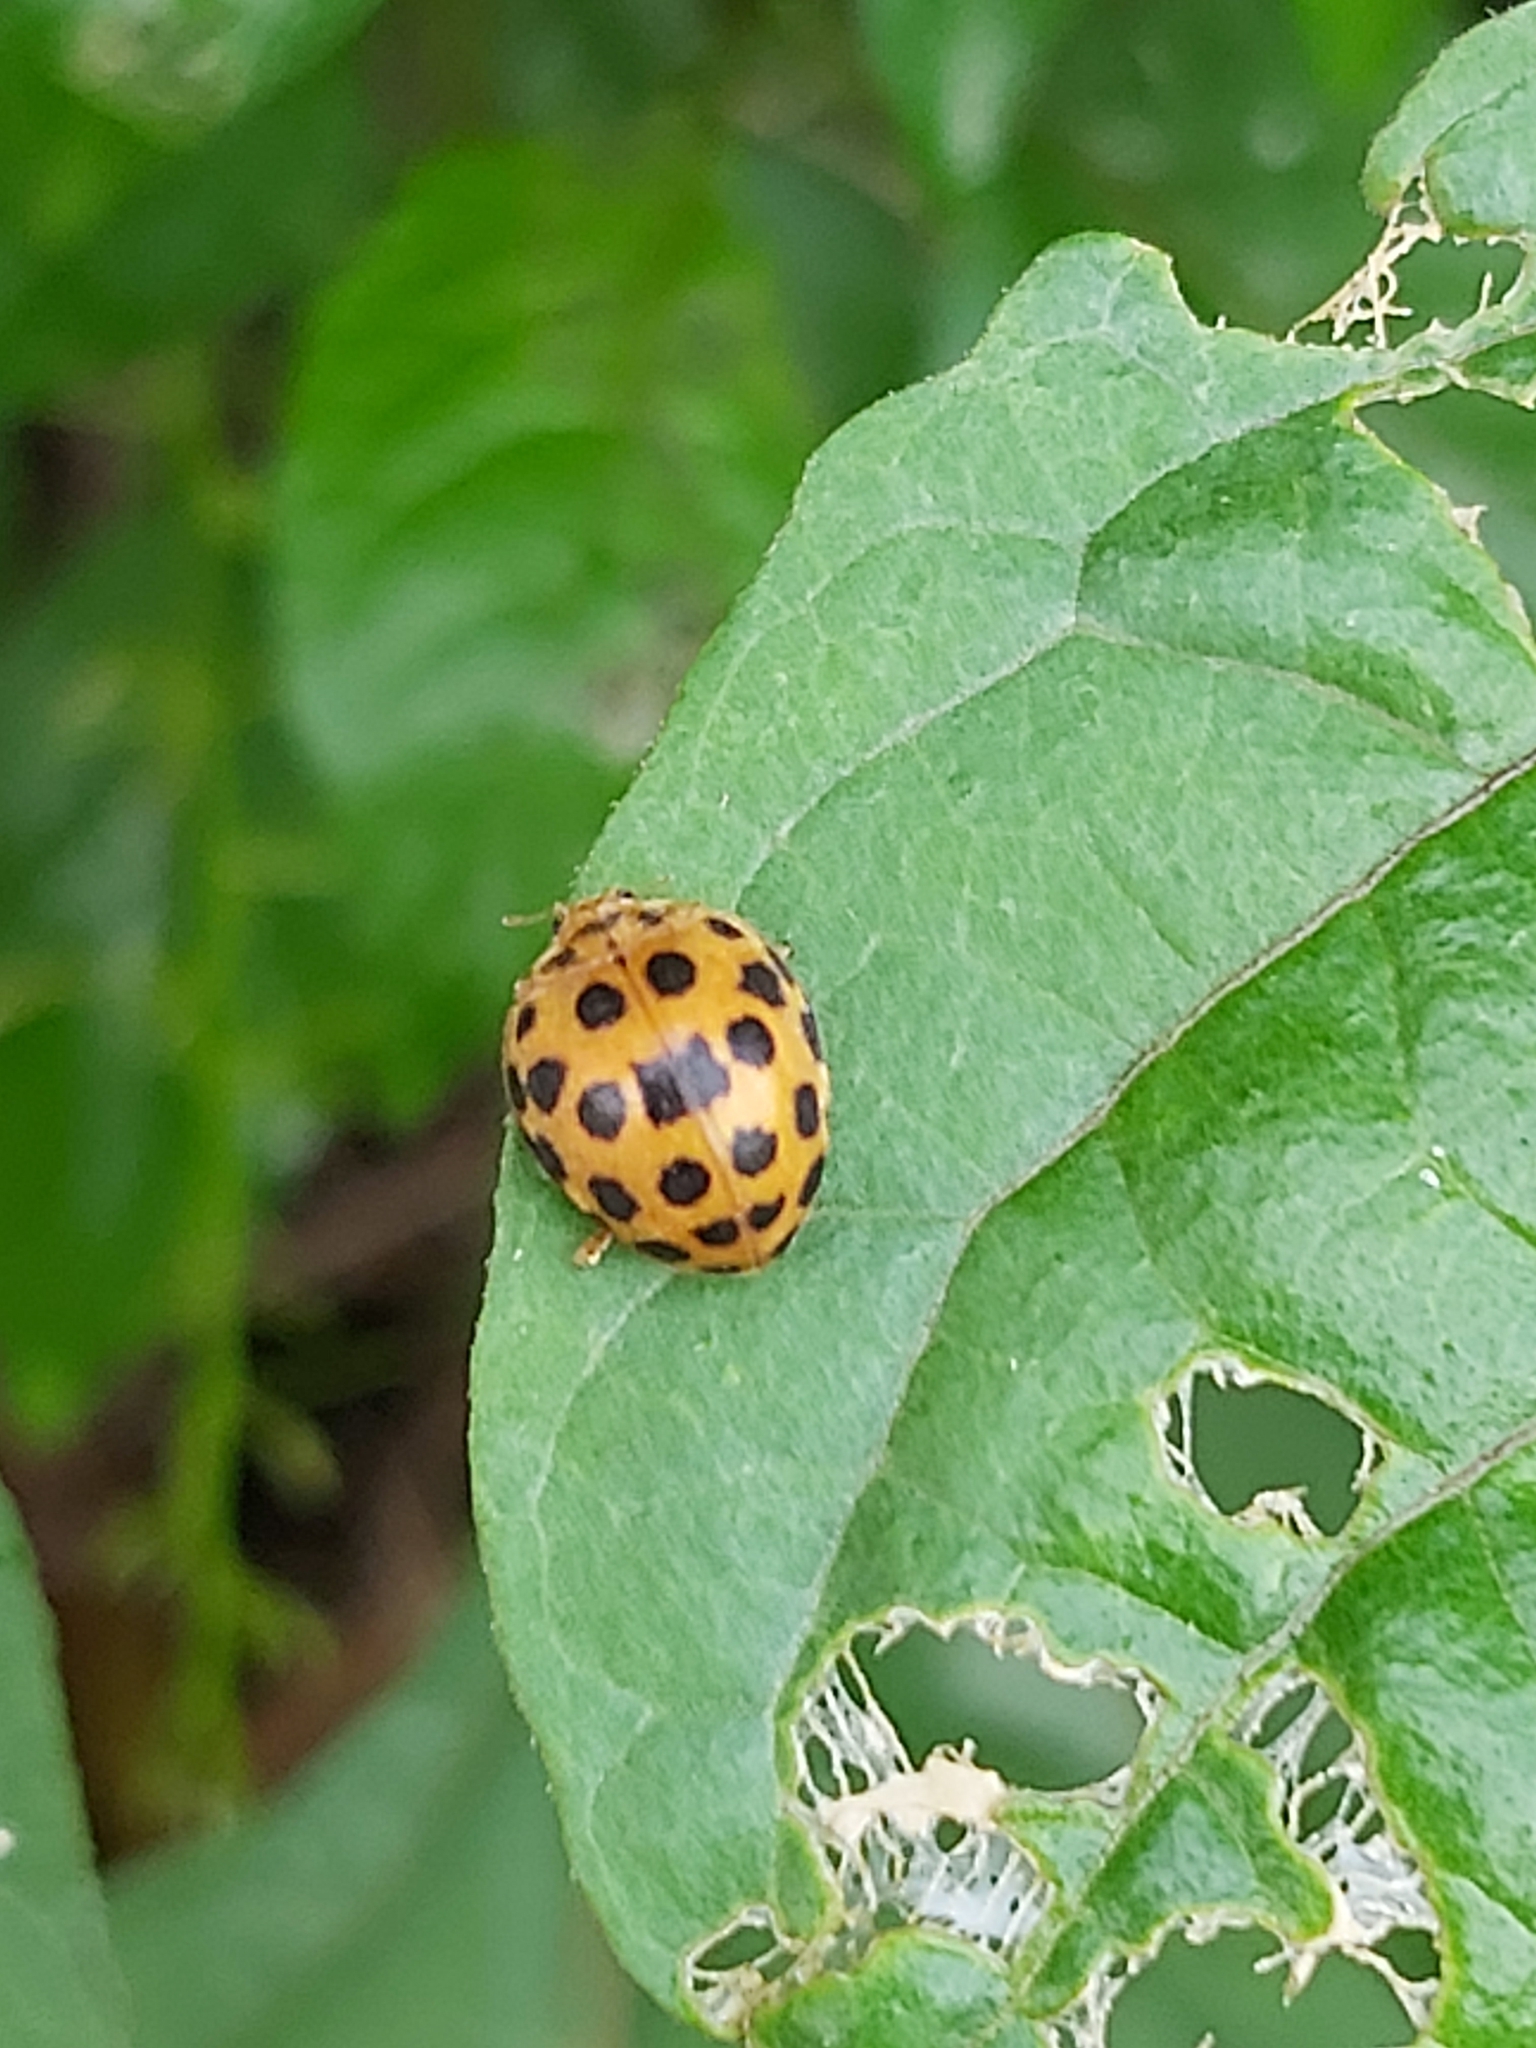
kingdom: Animalia
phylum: Arthropoda
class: Insecta
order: Coleoptera
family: Coccinellidae
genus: Henosepilachna
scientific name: Henosepilachna vigintioctopunctata
